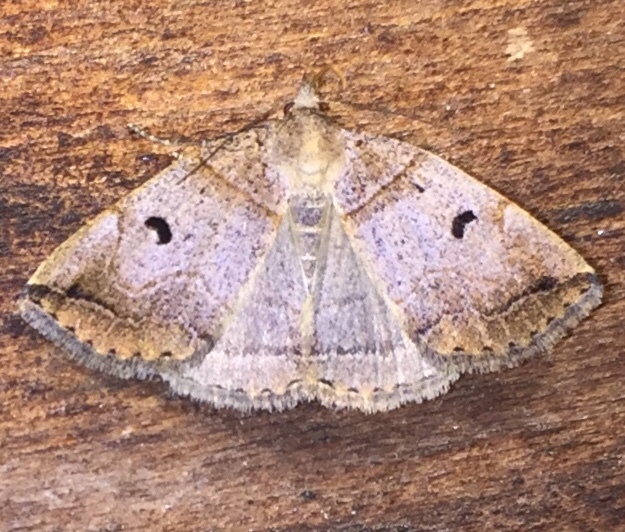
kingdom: Animalia
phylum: Arthropoda
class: Insecta
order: Lepidoptera
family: Erebidae
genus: Zanclognatha
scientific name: Zanclognatha laevigata
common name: Variable fan-foot
